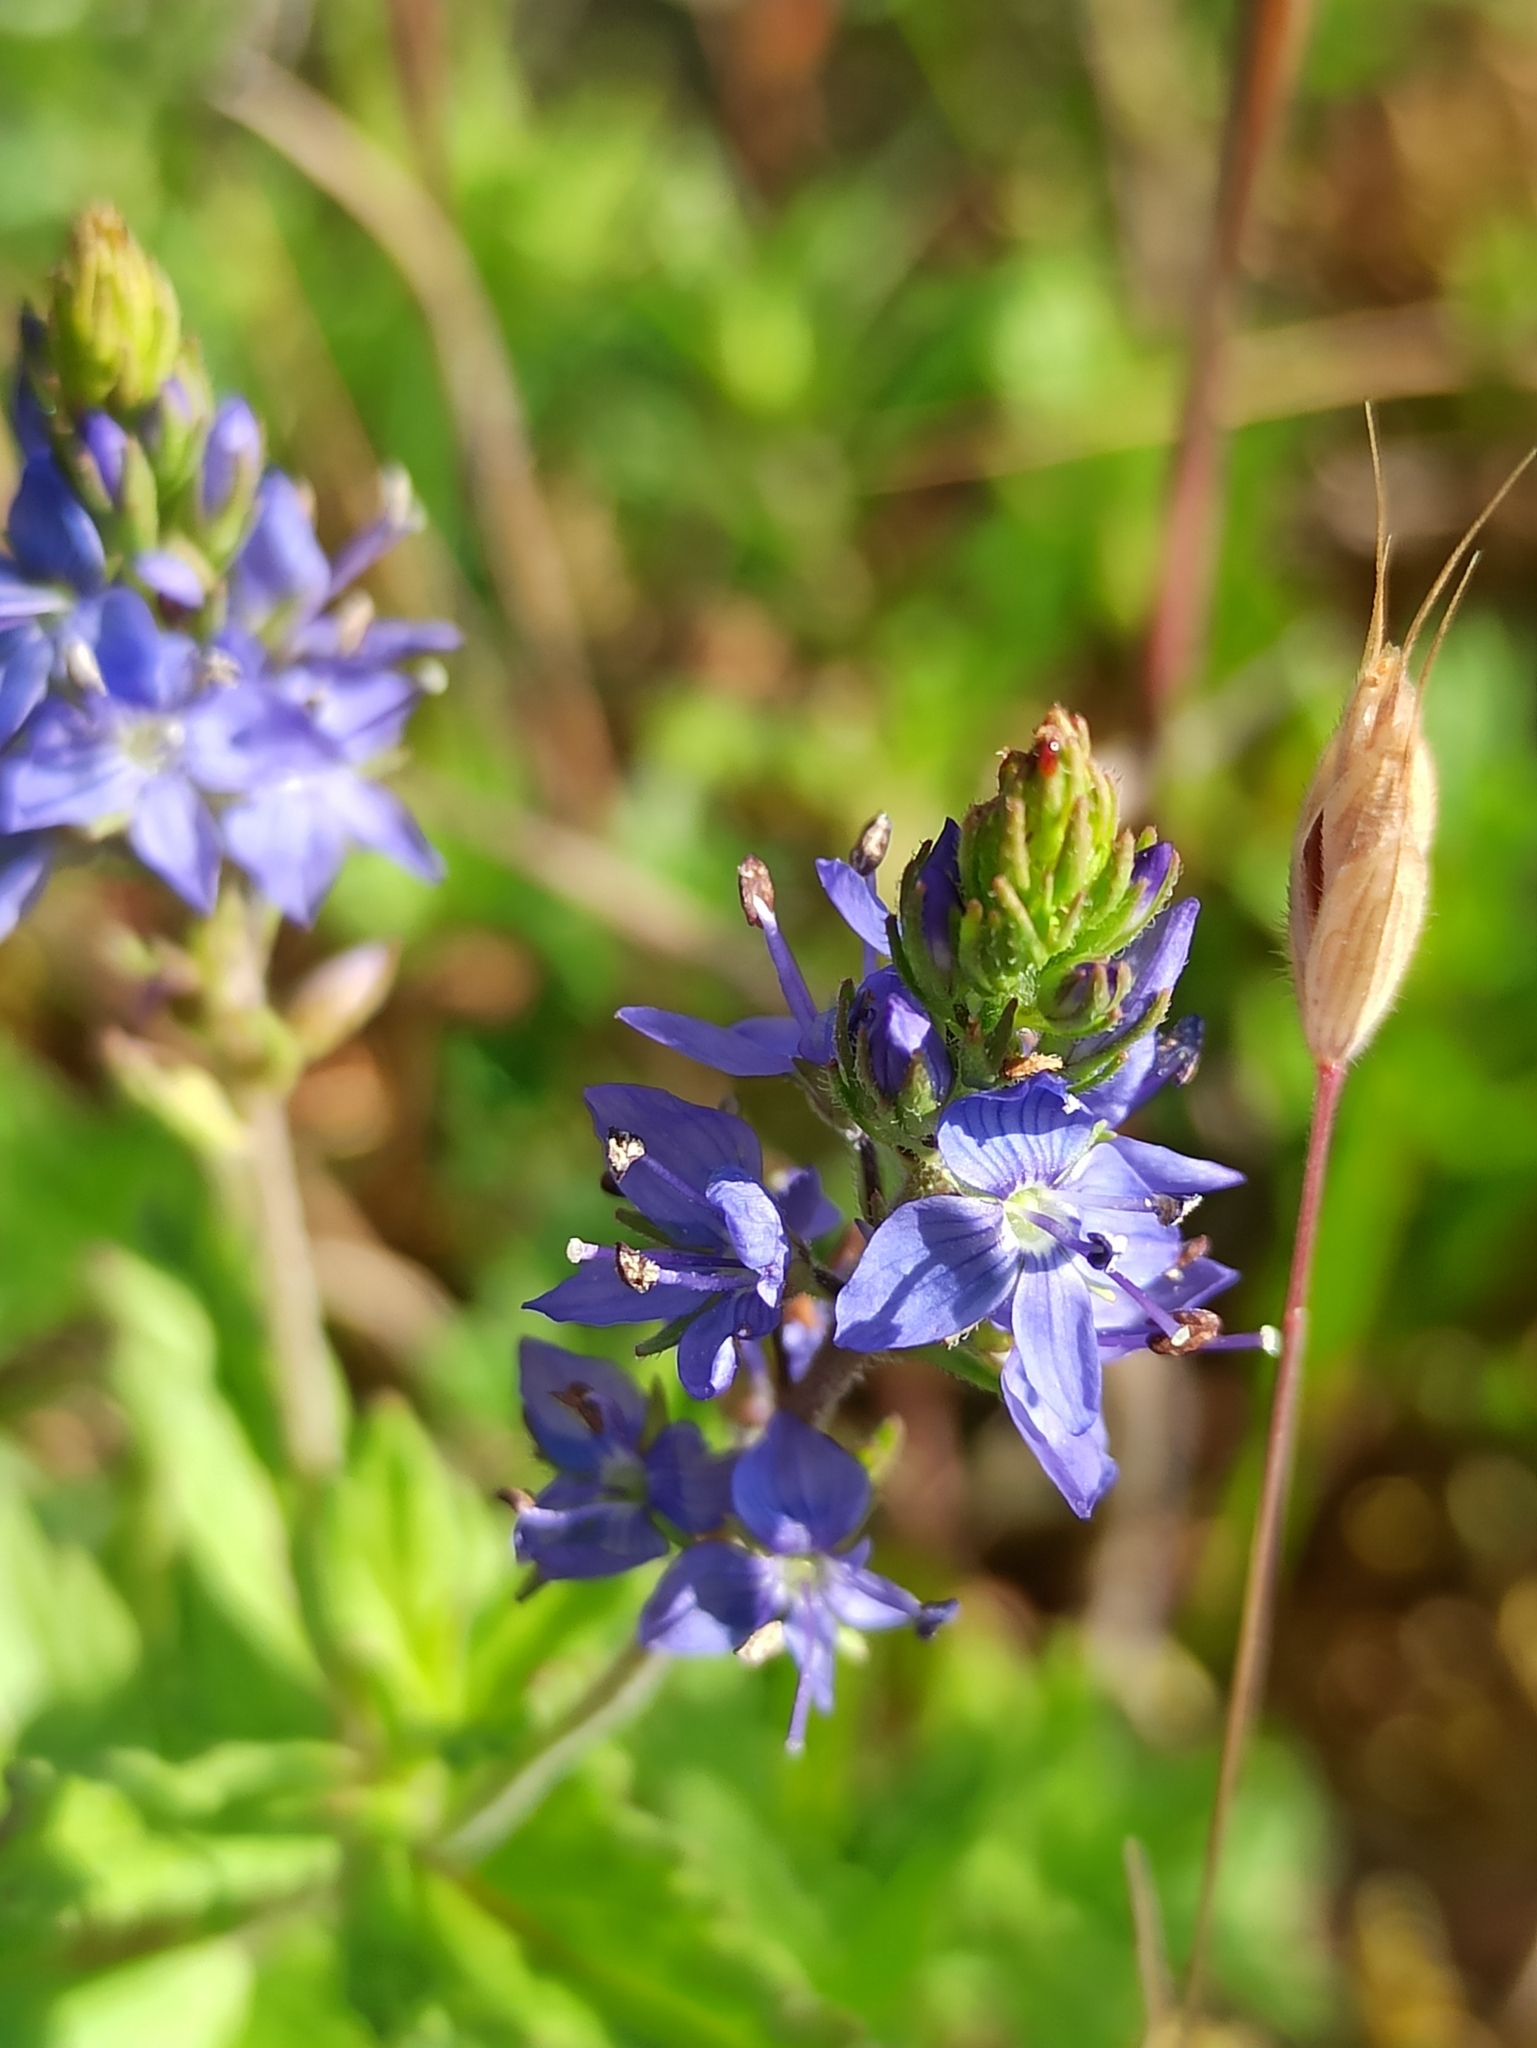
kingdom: Plantae
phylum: Tracheophyta
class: Magnoliopsida
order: Lamiales
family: Plantaginaceae
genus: Veronica
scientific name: Veronica teucrium
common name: Large speedwell
